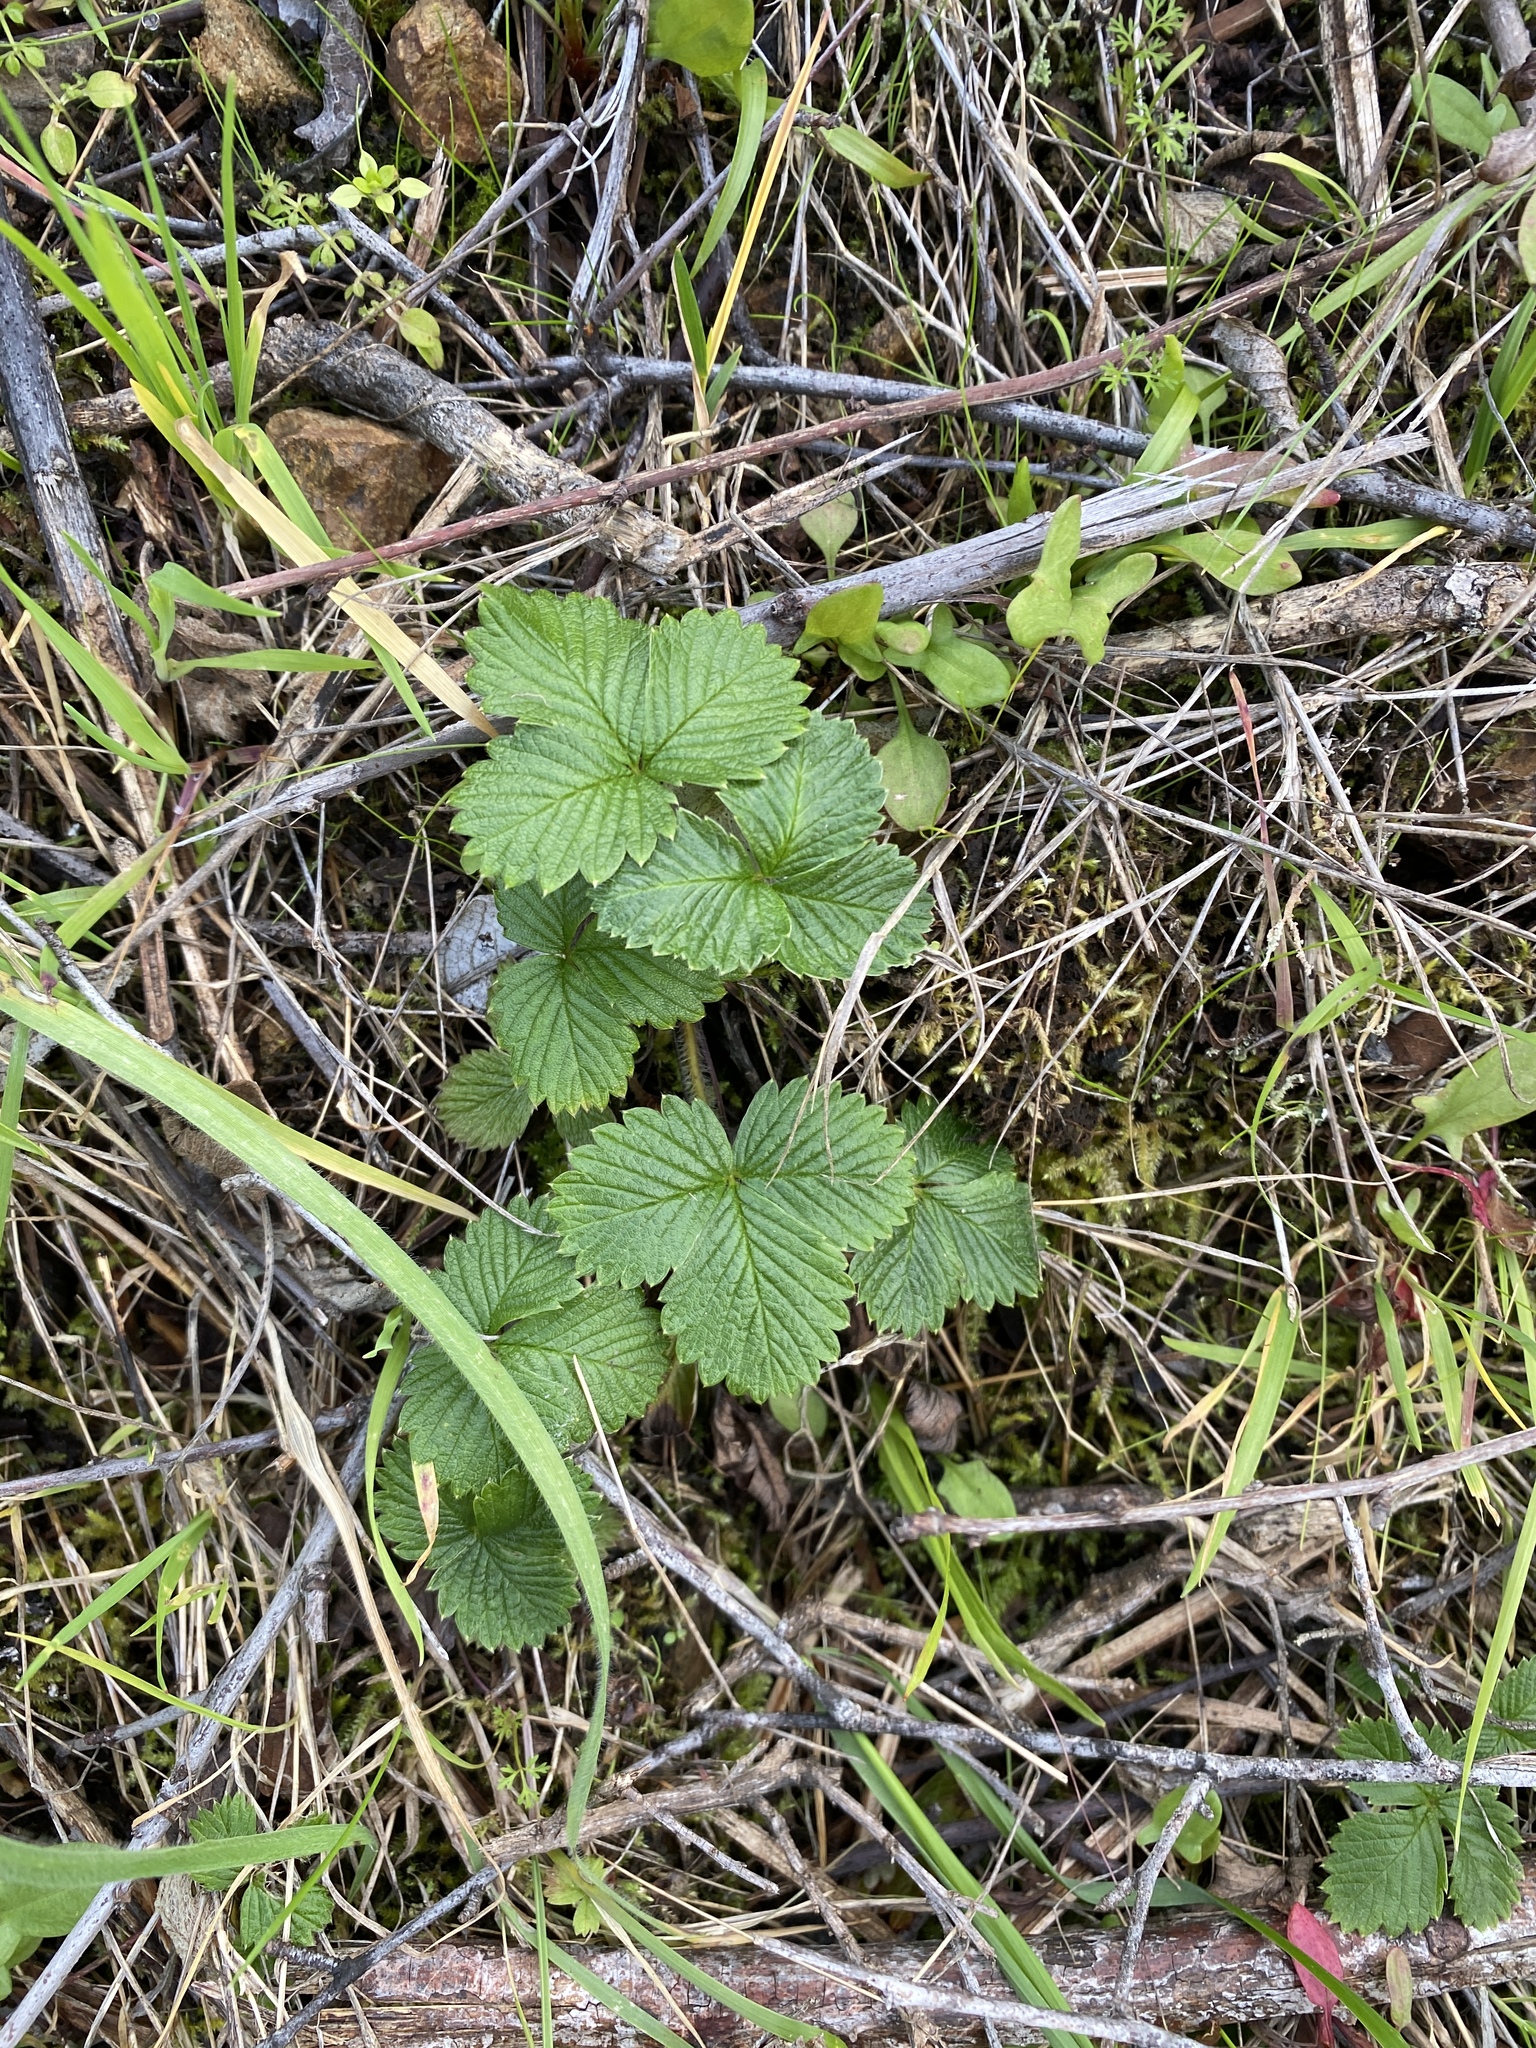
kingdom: Plantae
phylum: Tracheophyta
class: Magnoliopsida
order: Rosales
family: Rosaceae
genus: Fragaria
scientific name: Fragaria vesca
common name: Wild strawberry
